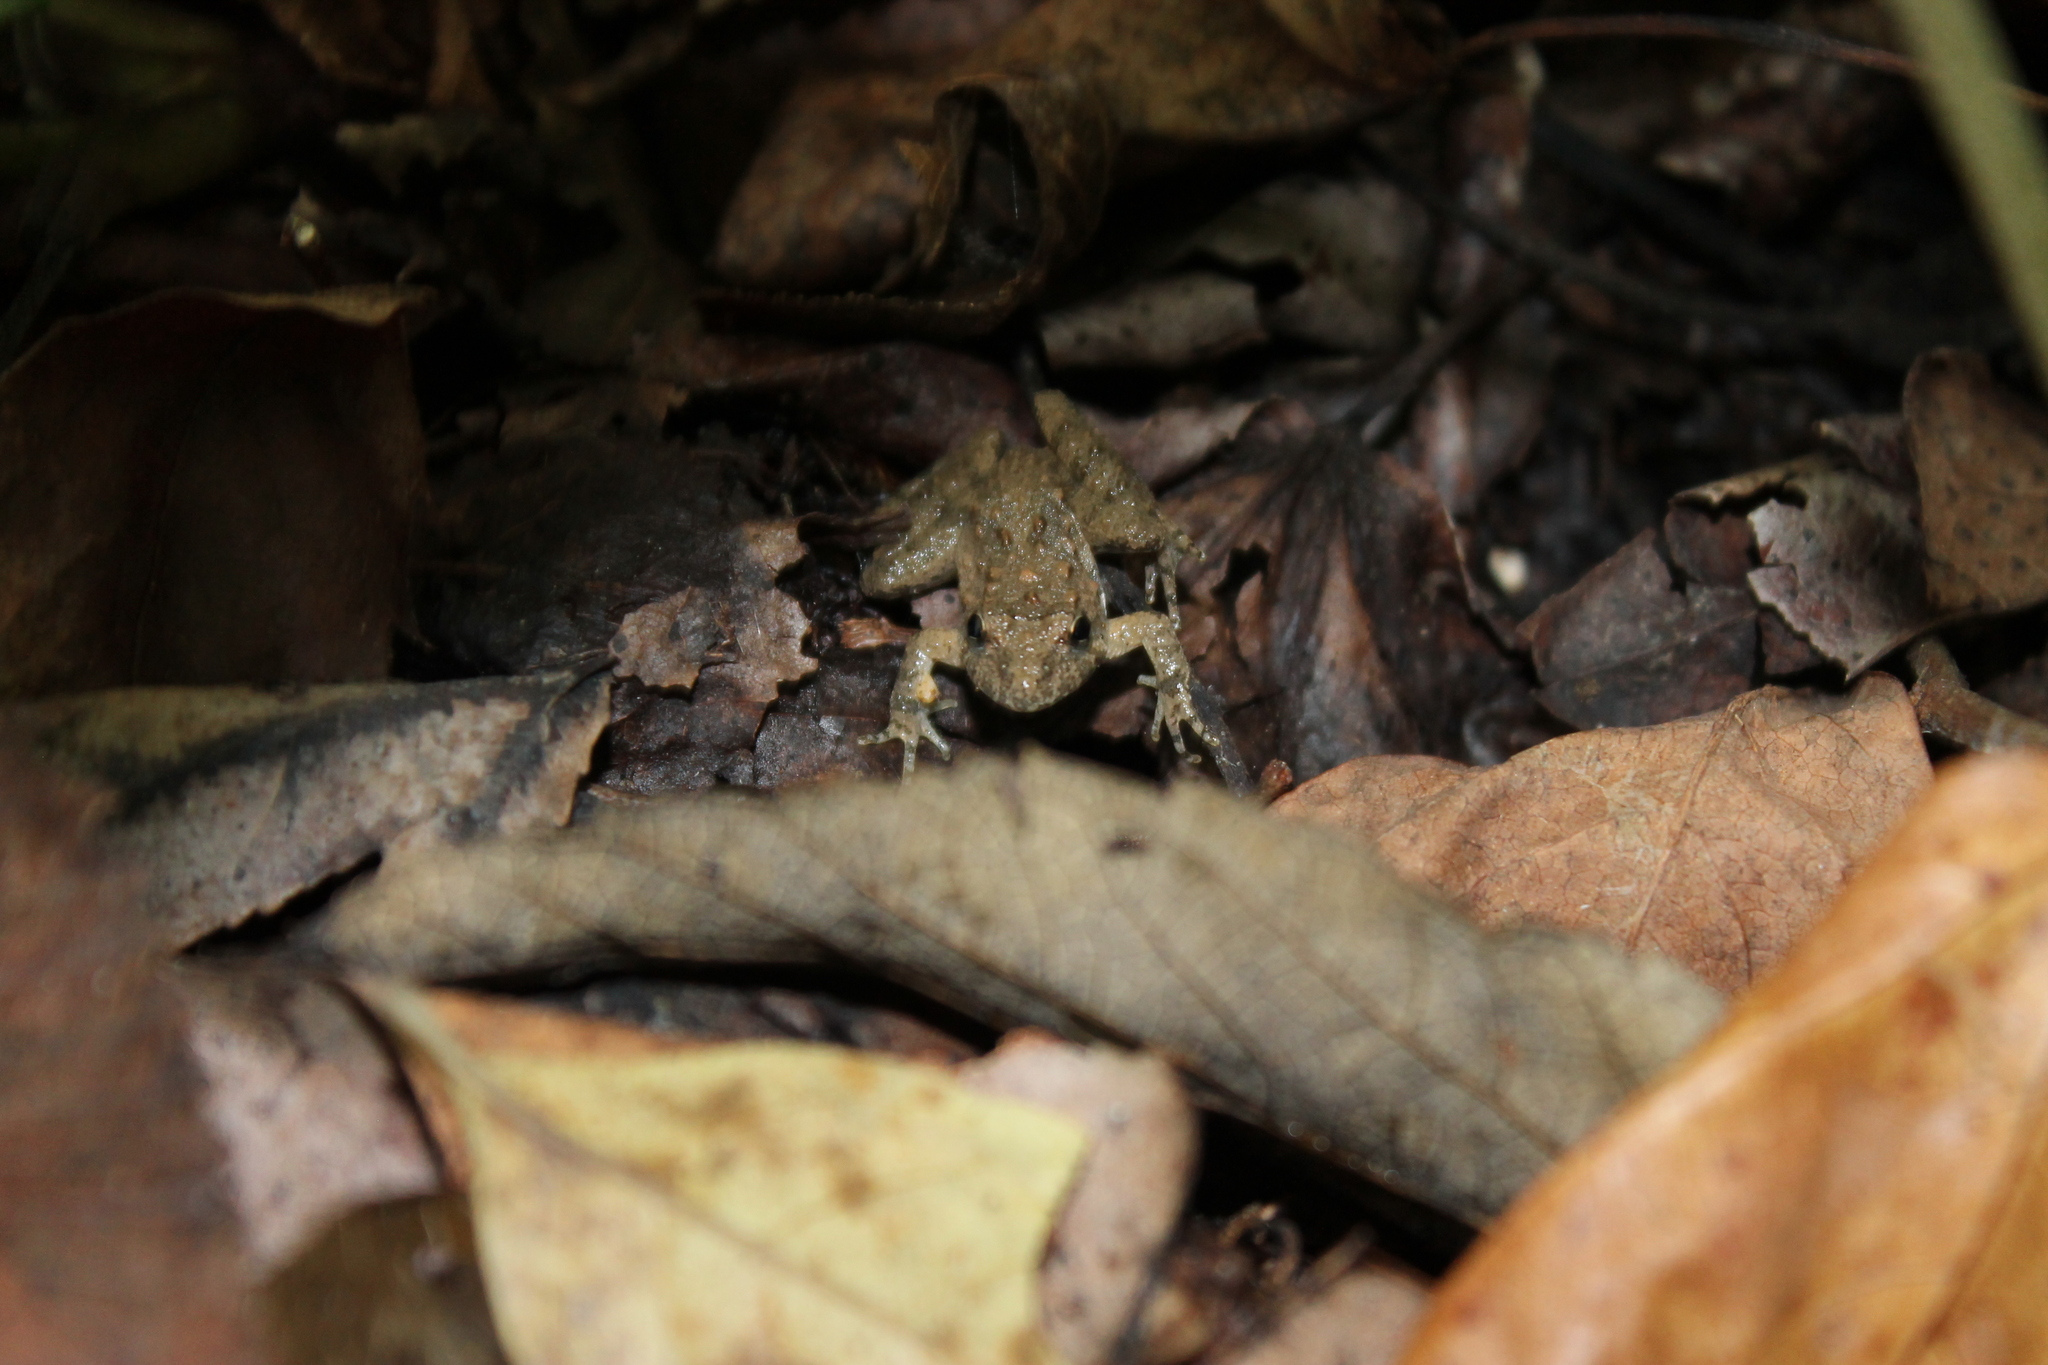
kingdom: Animalia
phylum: Chordata
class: Amphibia
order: Anura
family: Hylidae
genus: Acris
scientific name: Acris blanchardi
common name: Blanchard's cricket frog
